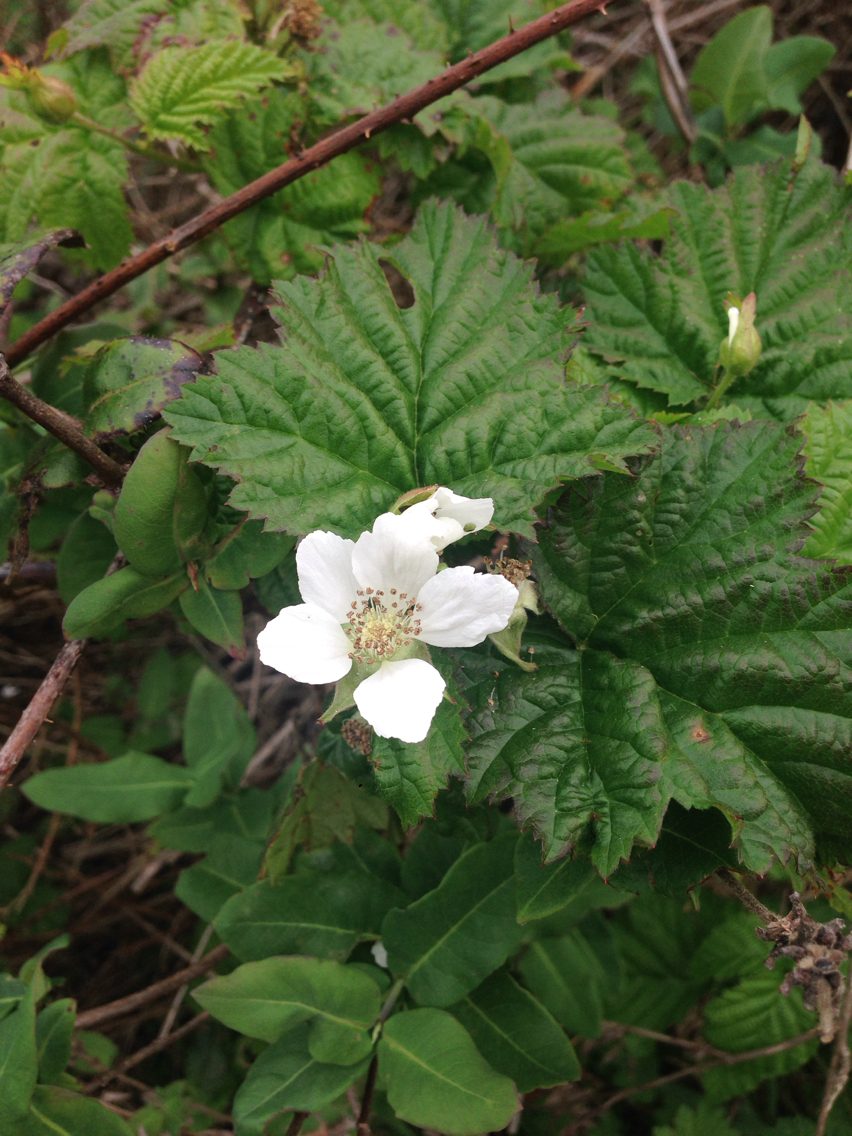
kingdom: Plantae
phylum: Tracheophyta
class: Magnoliopsida
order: Rosales
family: Rosaceae
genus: Rubus
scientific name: Rubus ursinus
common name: Pacific blackberry
